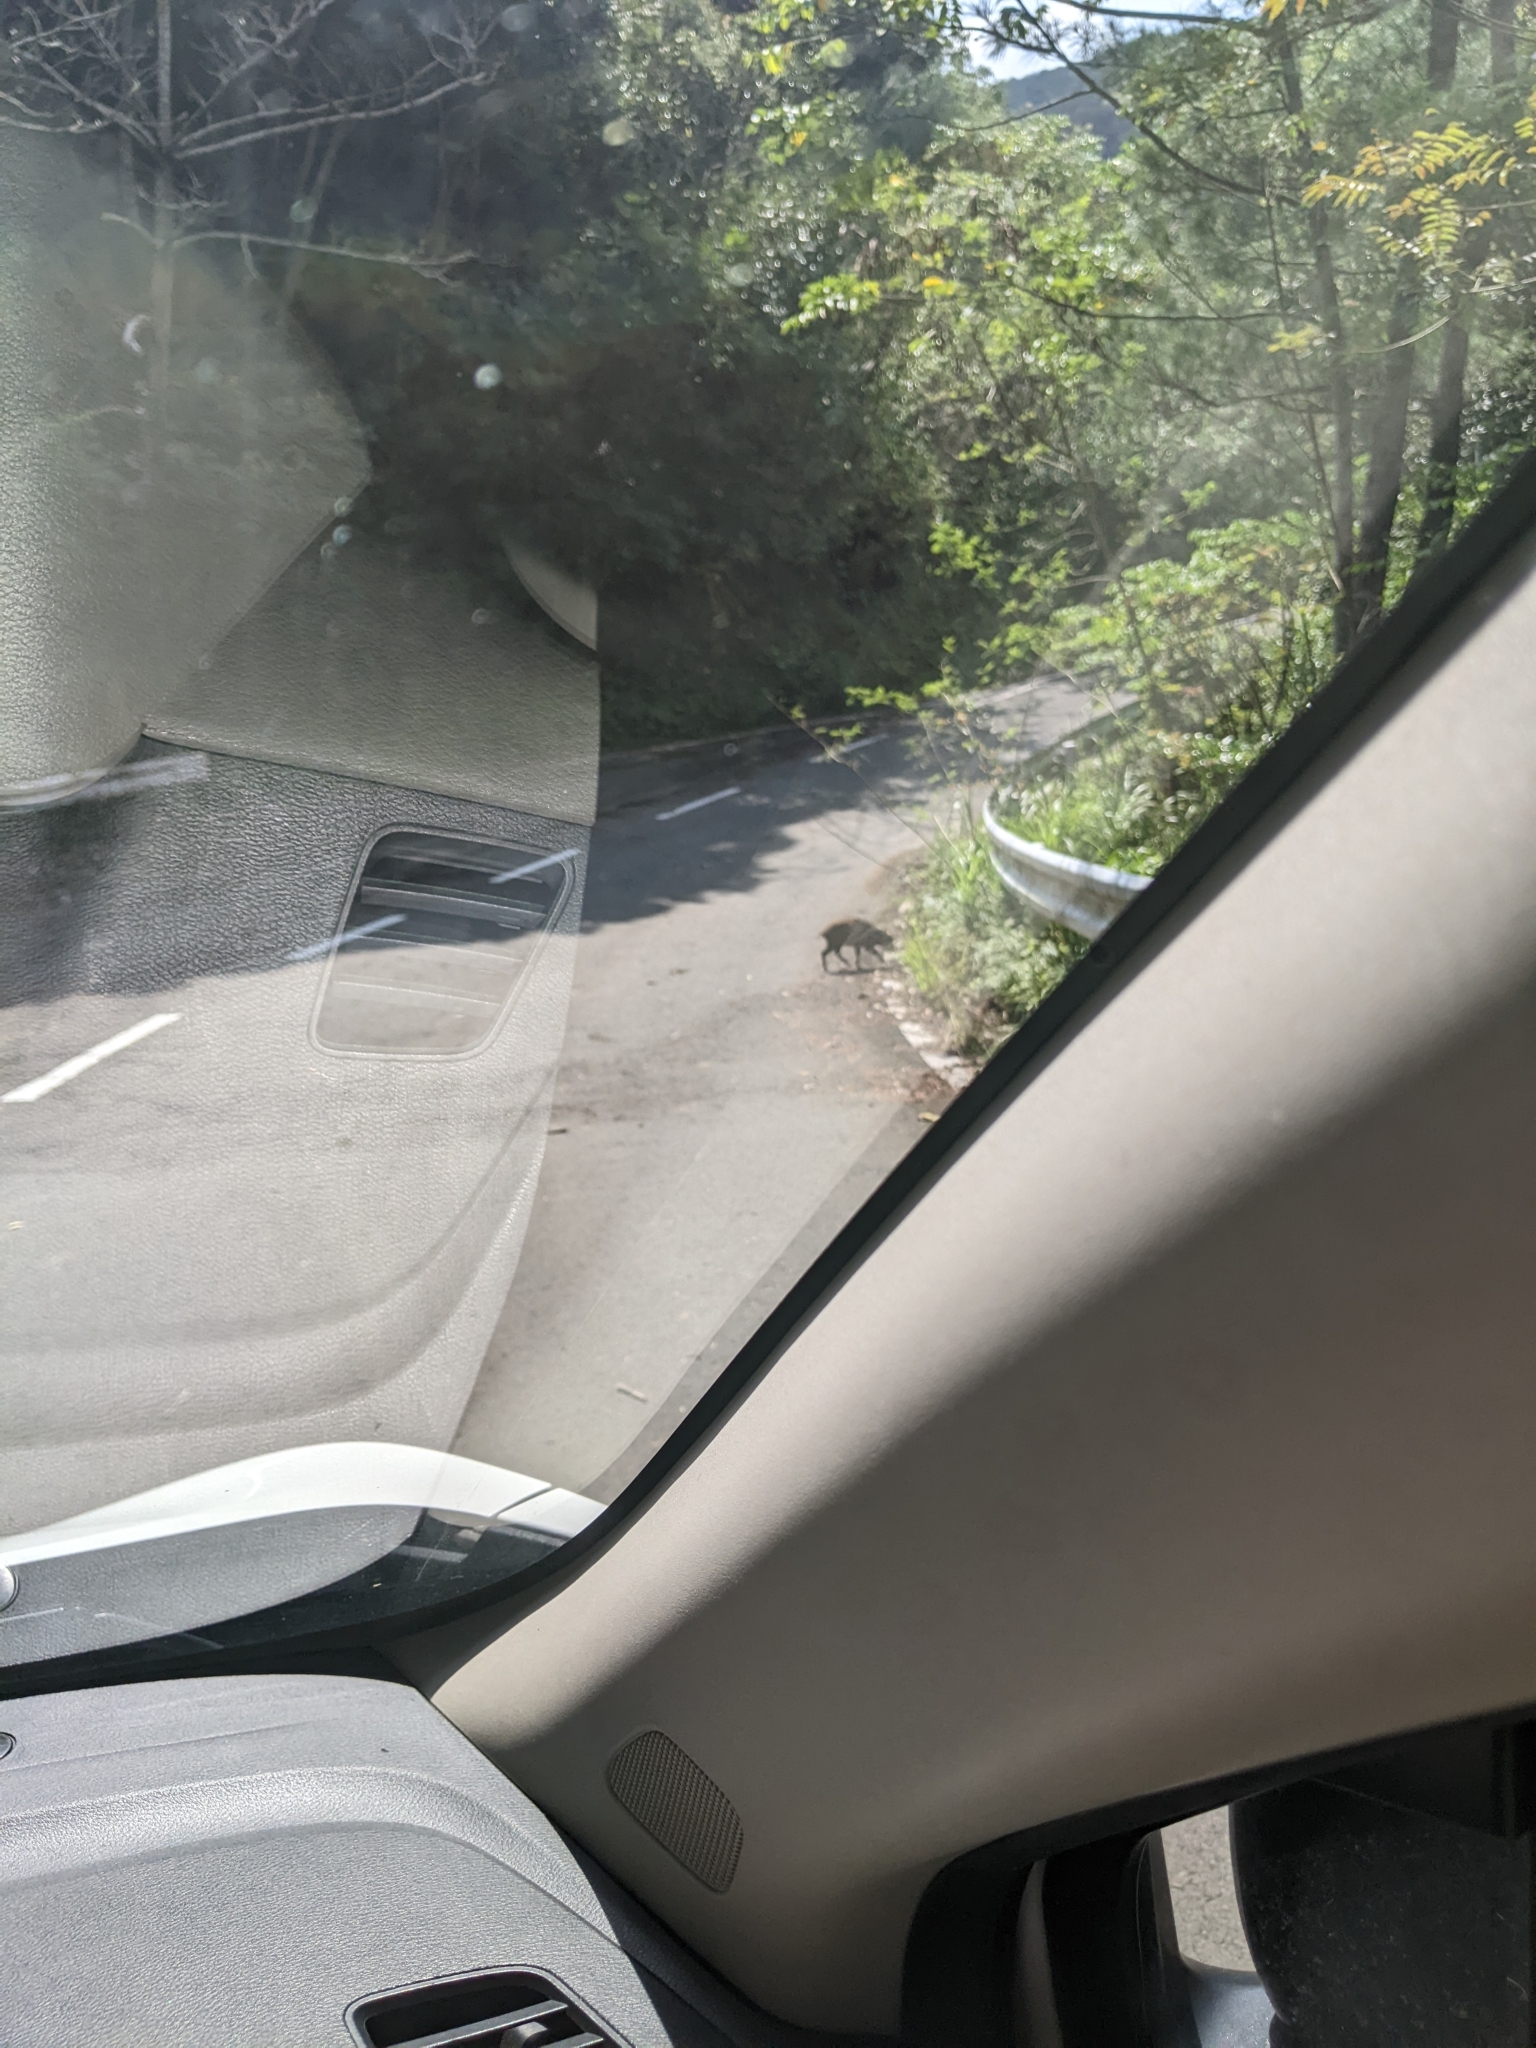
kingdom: Animalia
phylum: Chordata
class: Mammalia
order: Artiodactyla
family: Suidae
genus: Sus
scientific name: Sus scrofa
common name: Wild boar
